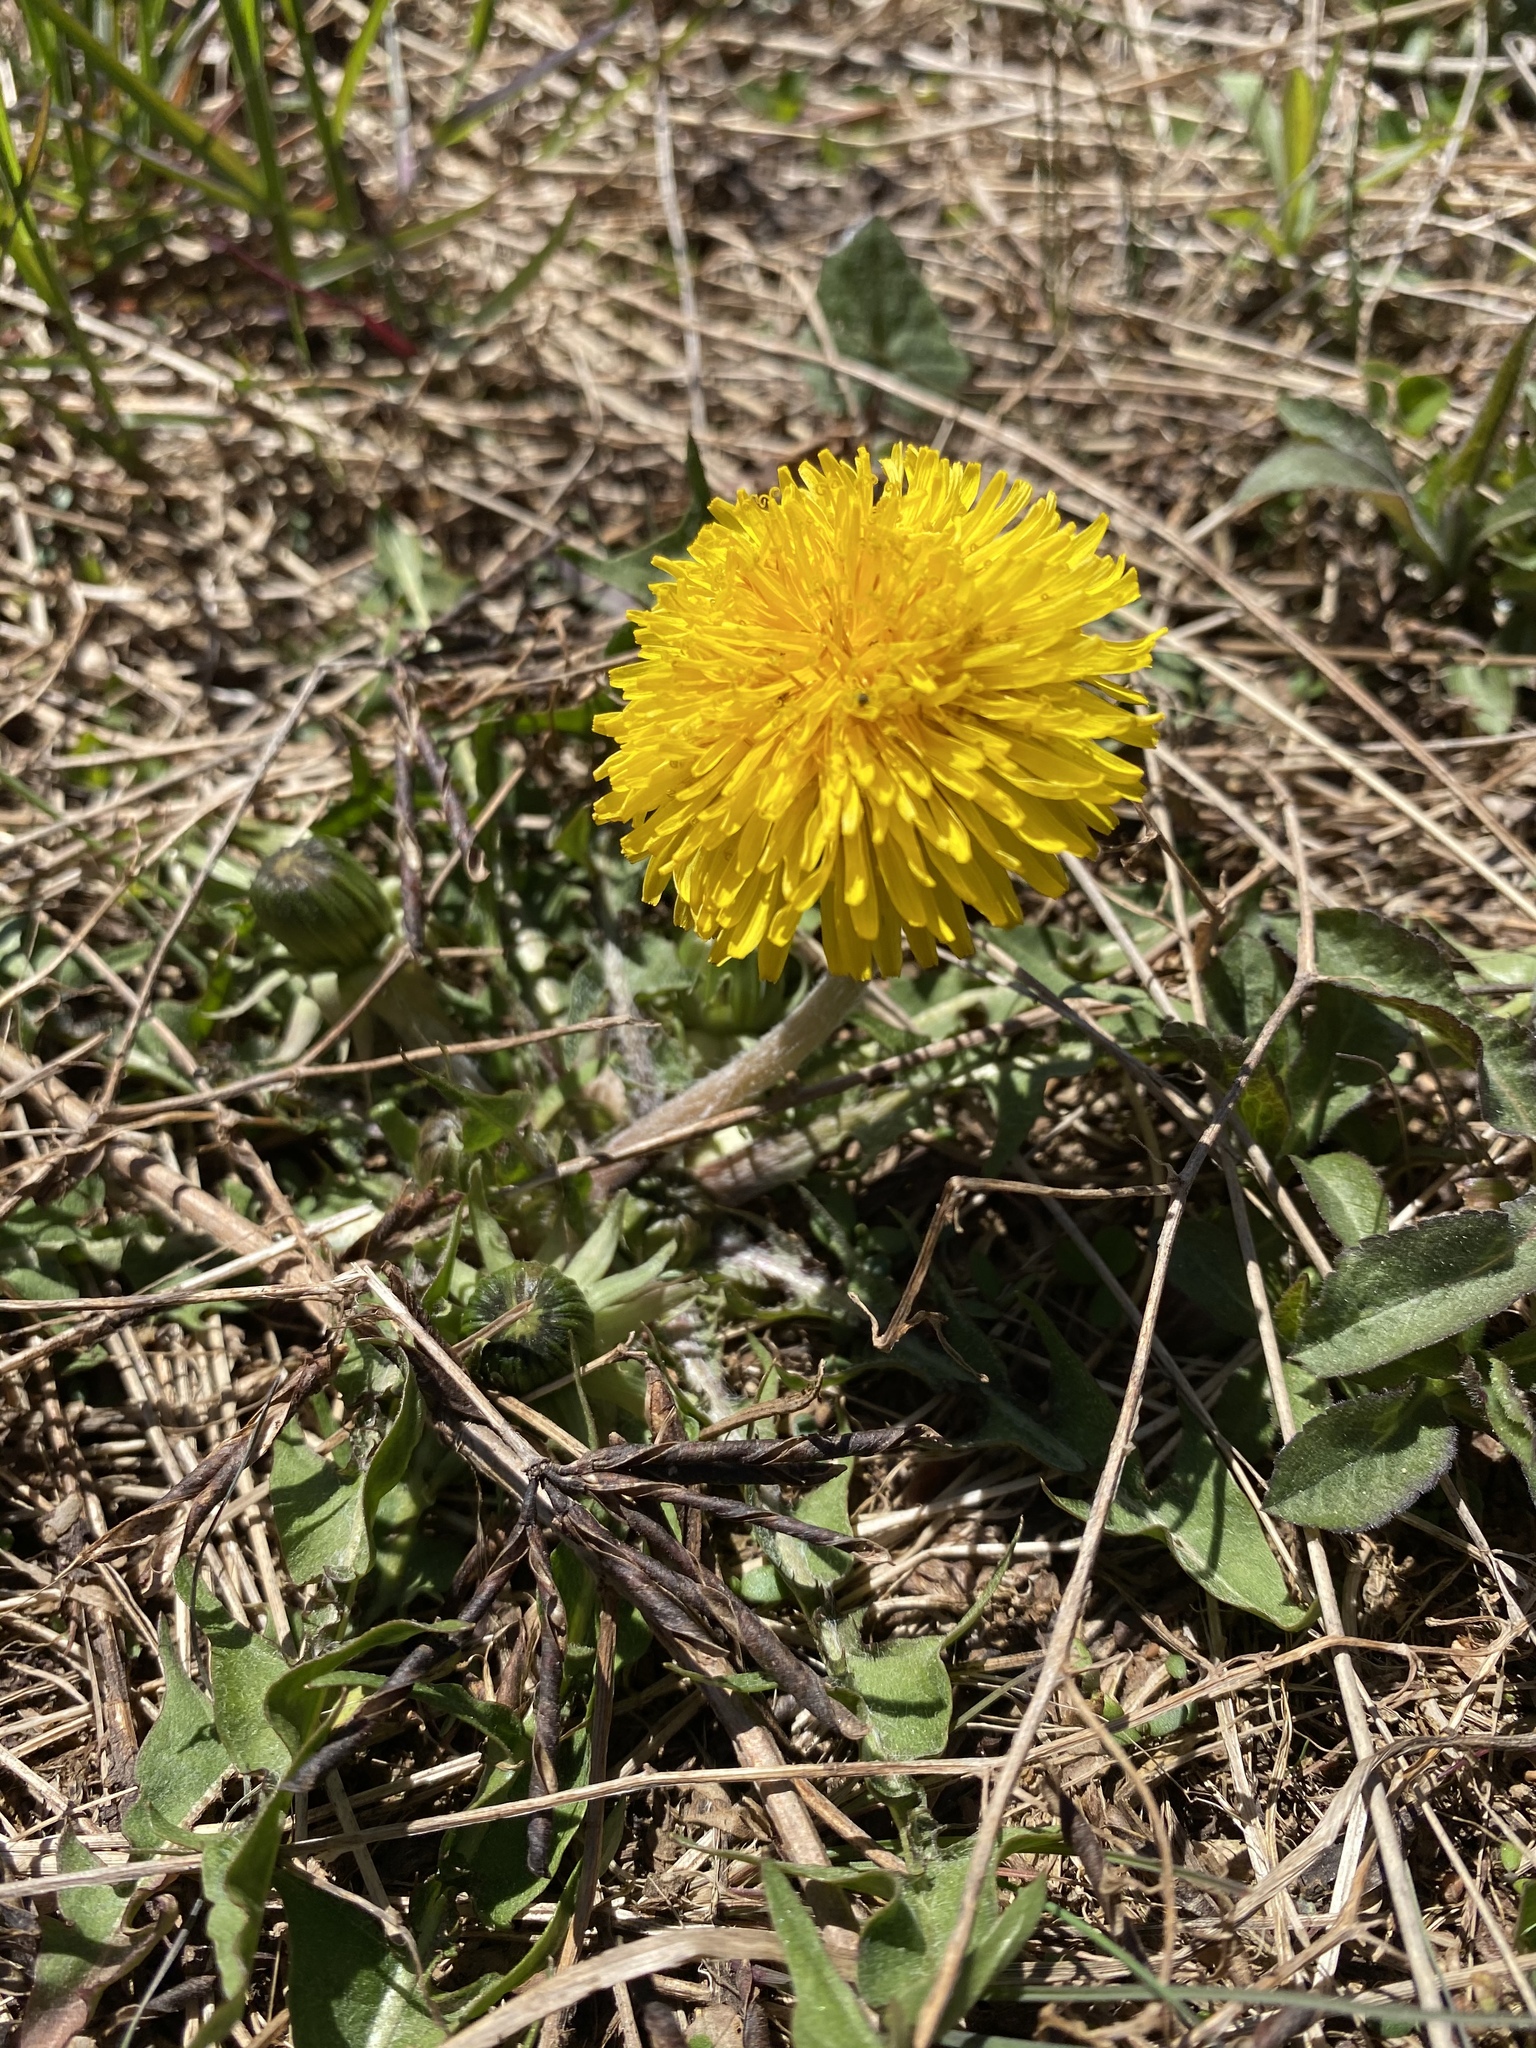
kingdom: Plantae
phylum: Tracheophyta
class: Magnoliopsida
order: Asterales
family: Asteraceae
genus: Taraxacum
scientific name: Taraxacum officinale
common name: Common dandelion
